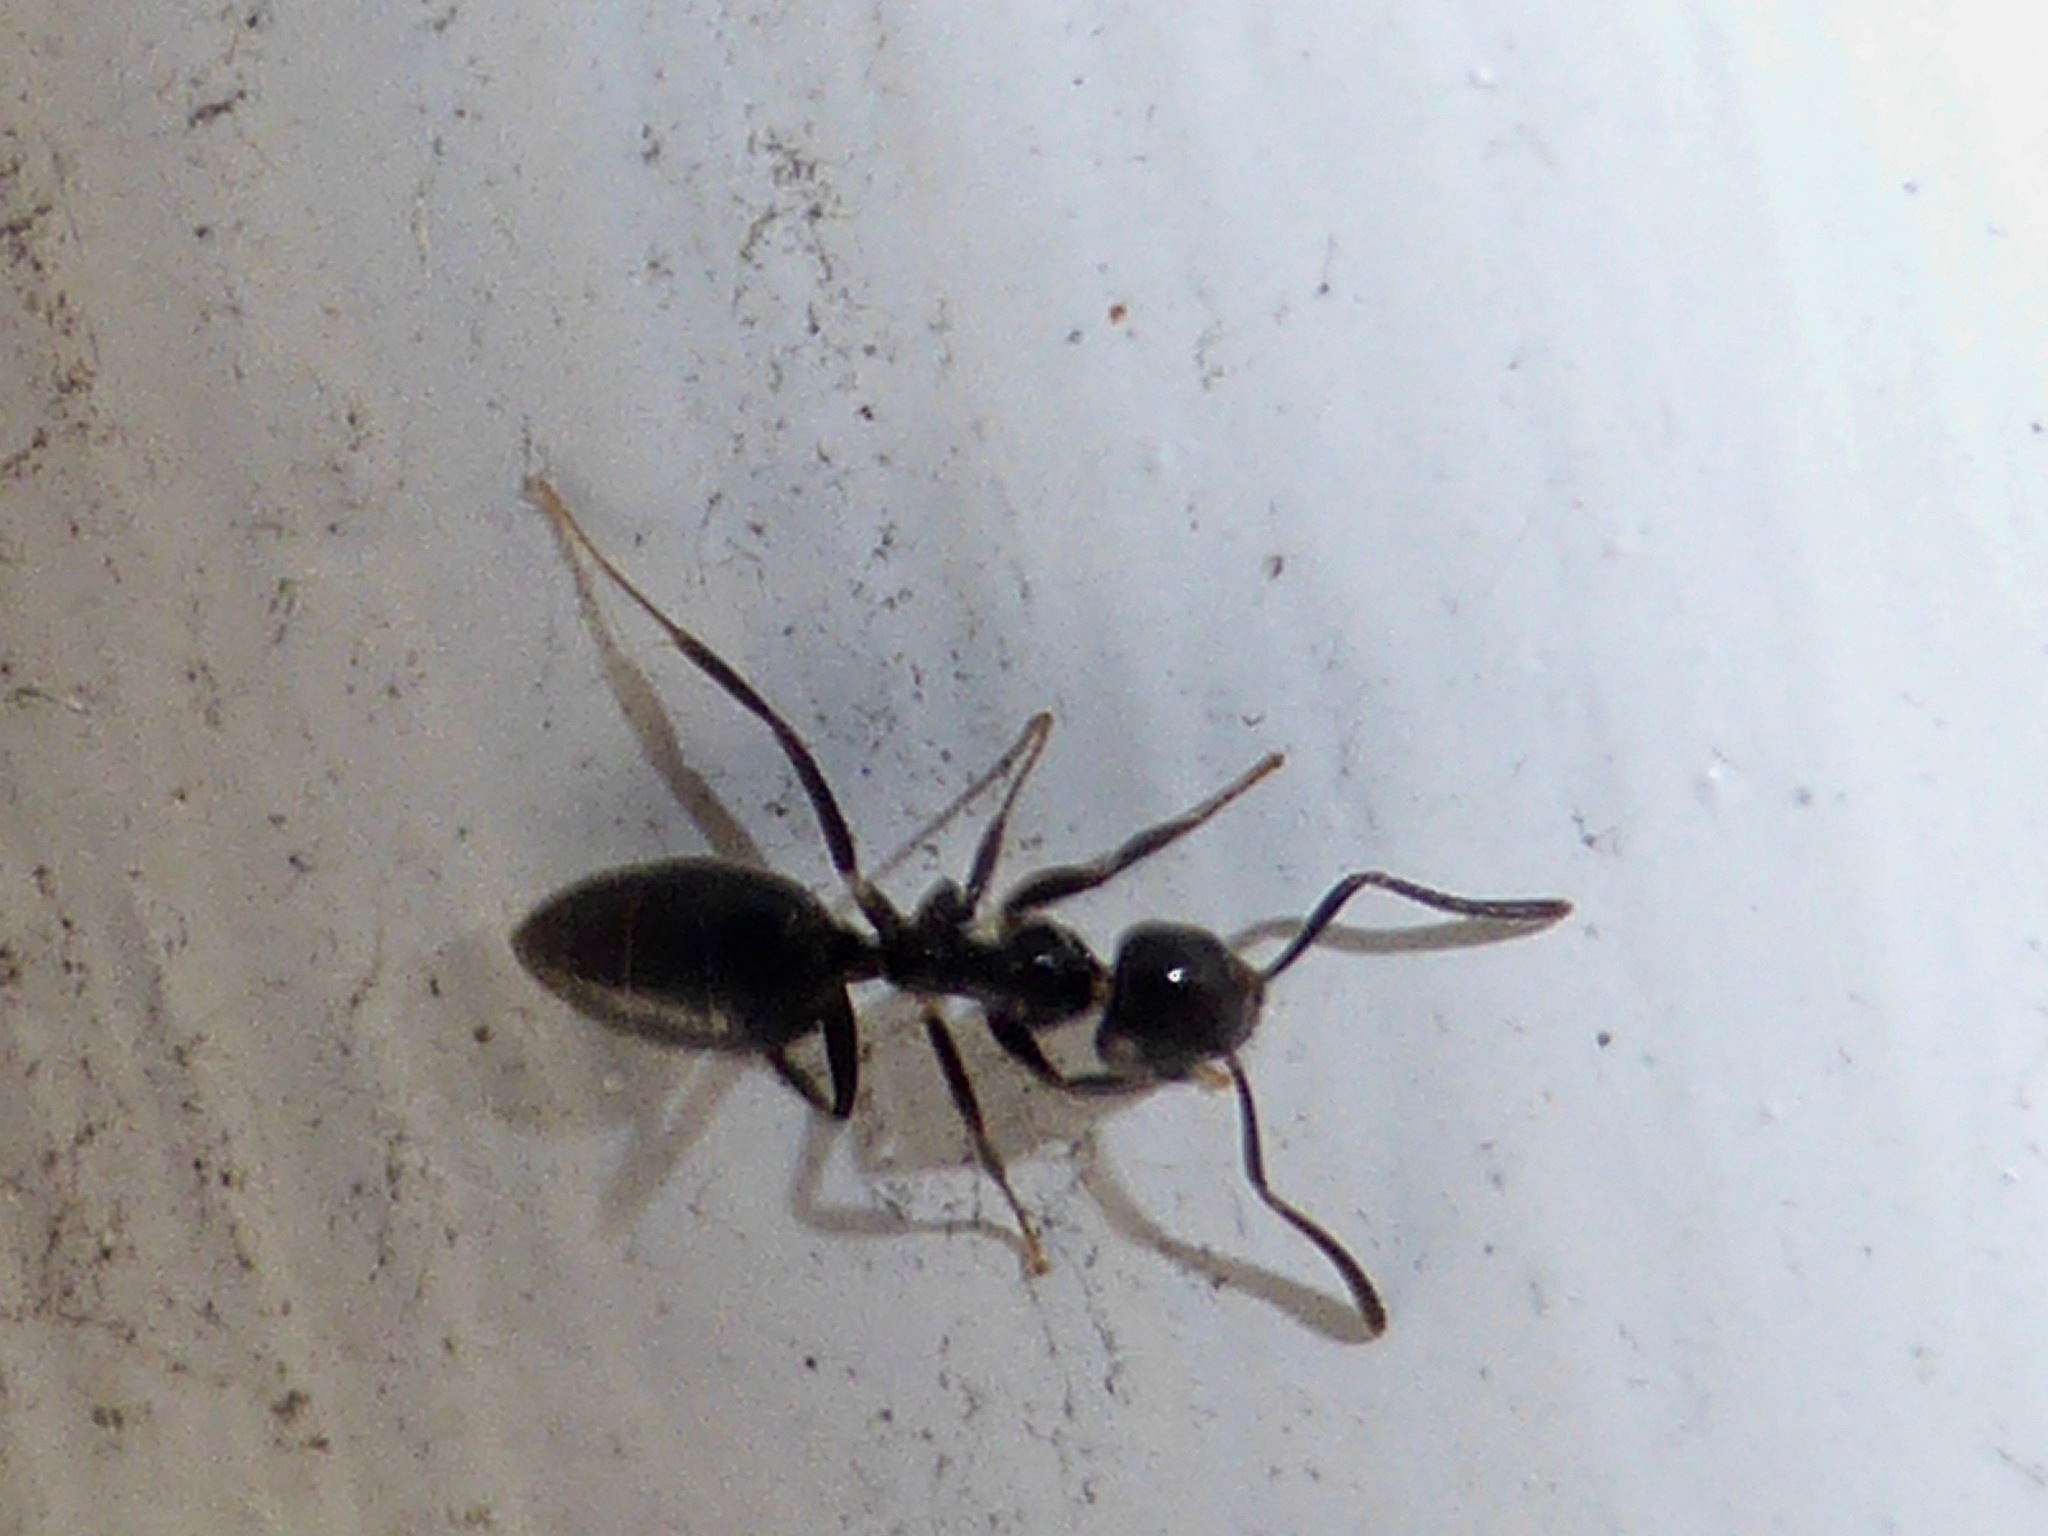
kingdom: Animalia
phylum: Arthropoda
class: Insecta
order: Hymenoptera
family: Formicidae
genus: Technomyrmex
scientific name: Technomyrmex jocosus
